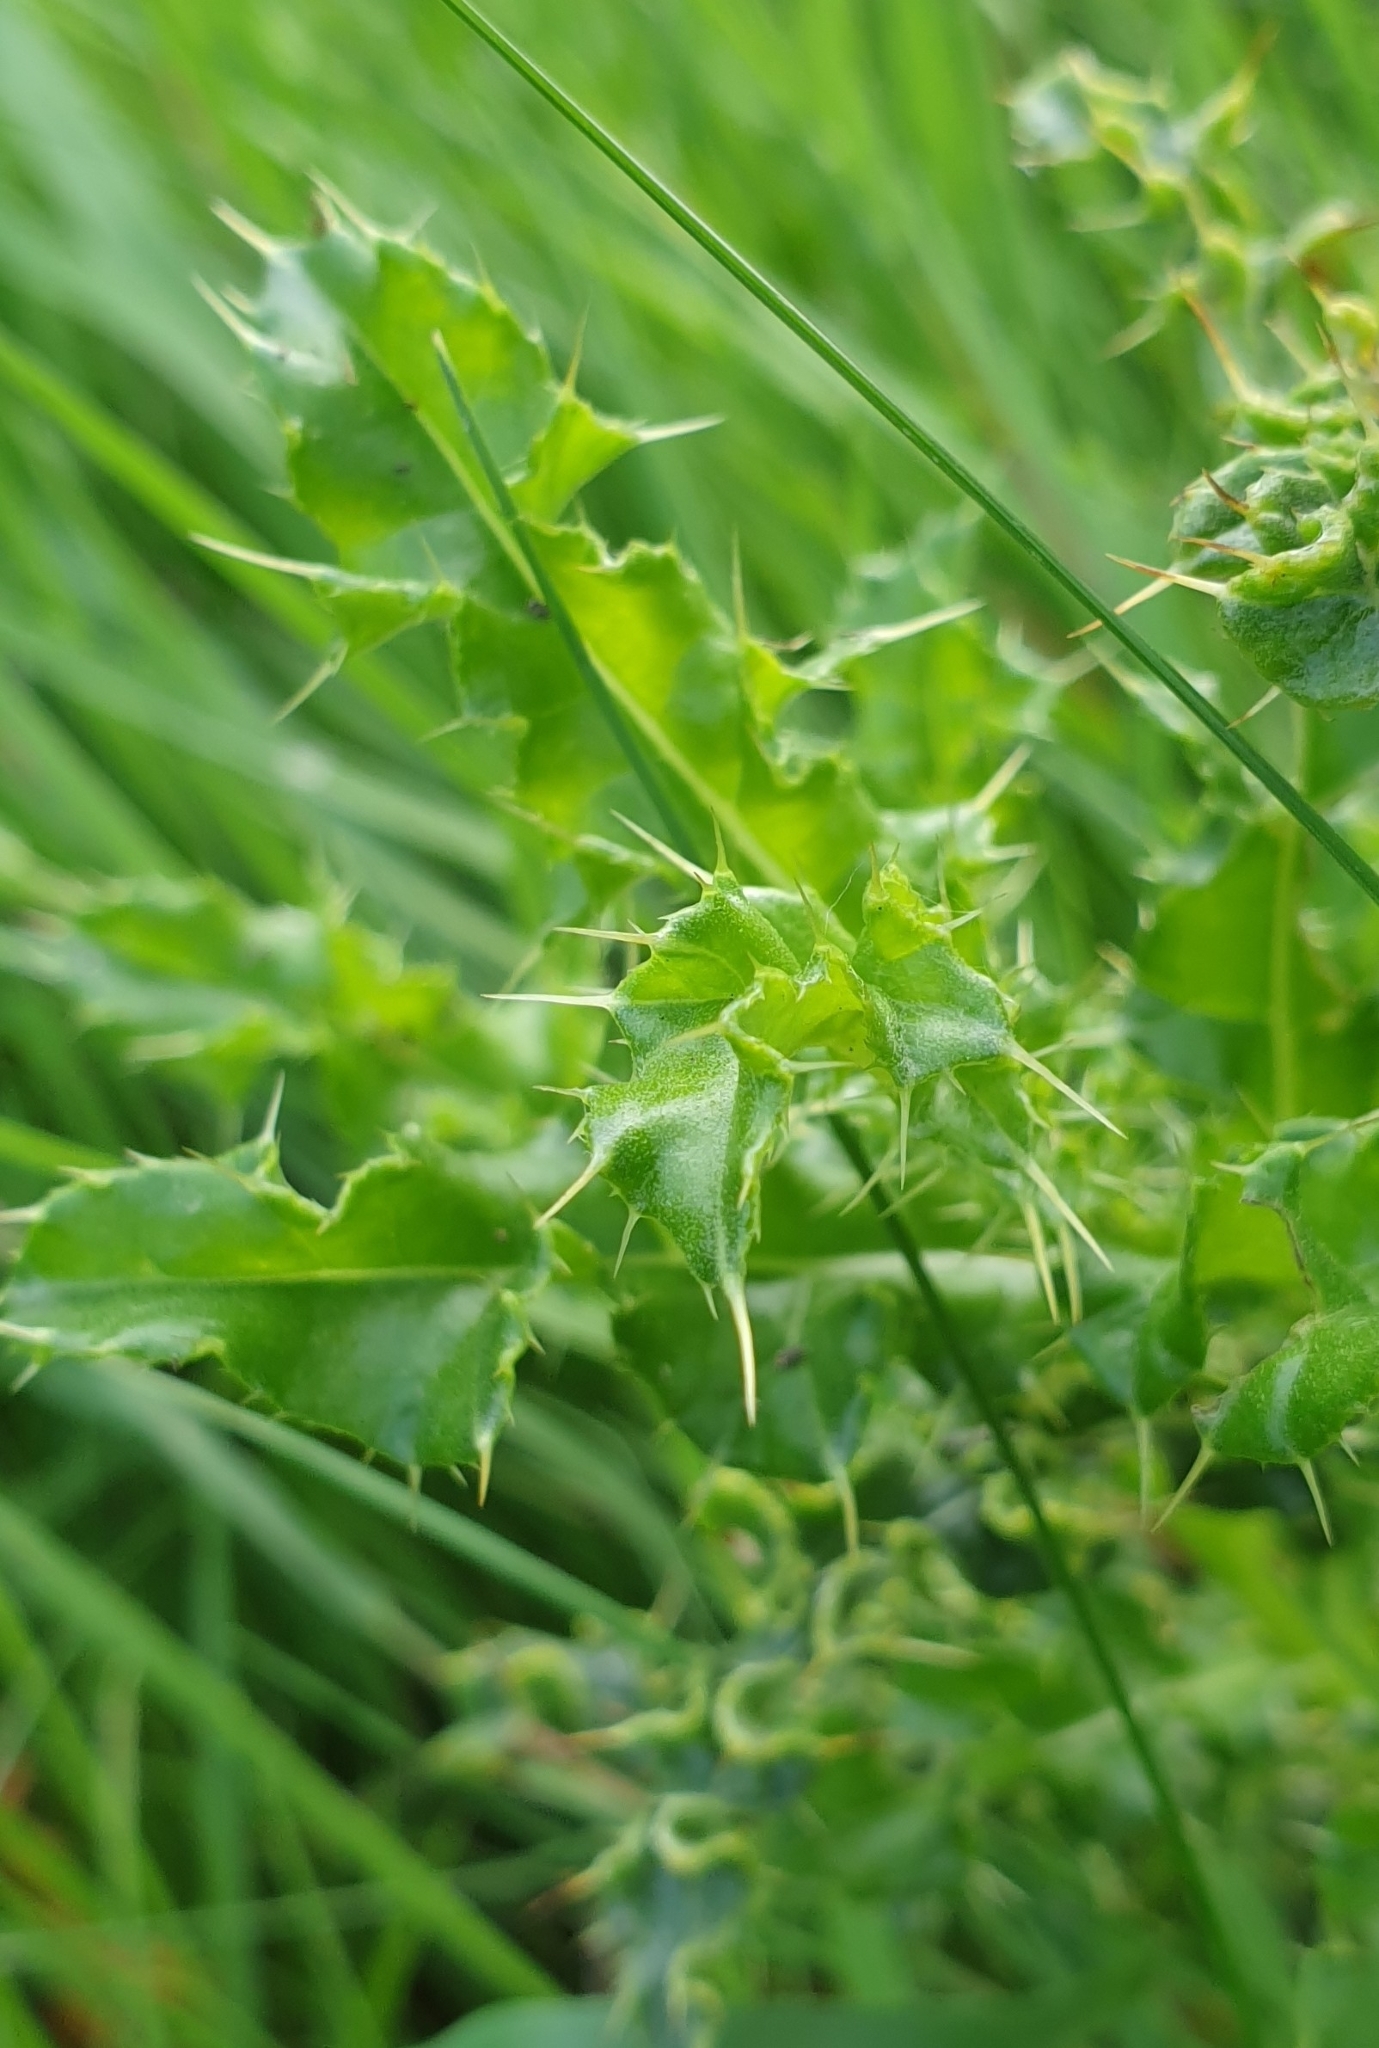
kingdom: Plantae
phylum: Tracheophyta
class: Magnoliopsida
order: Asterales
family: Asteraceae
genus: Cirsium
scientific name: Cirsium arvense
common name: Creeping thistle
